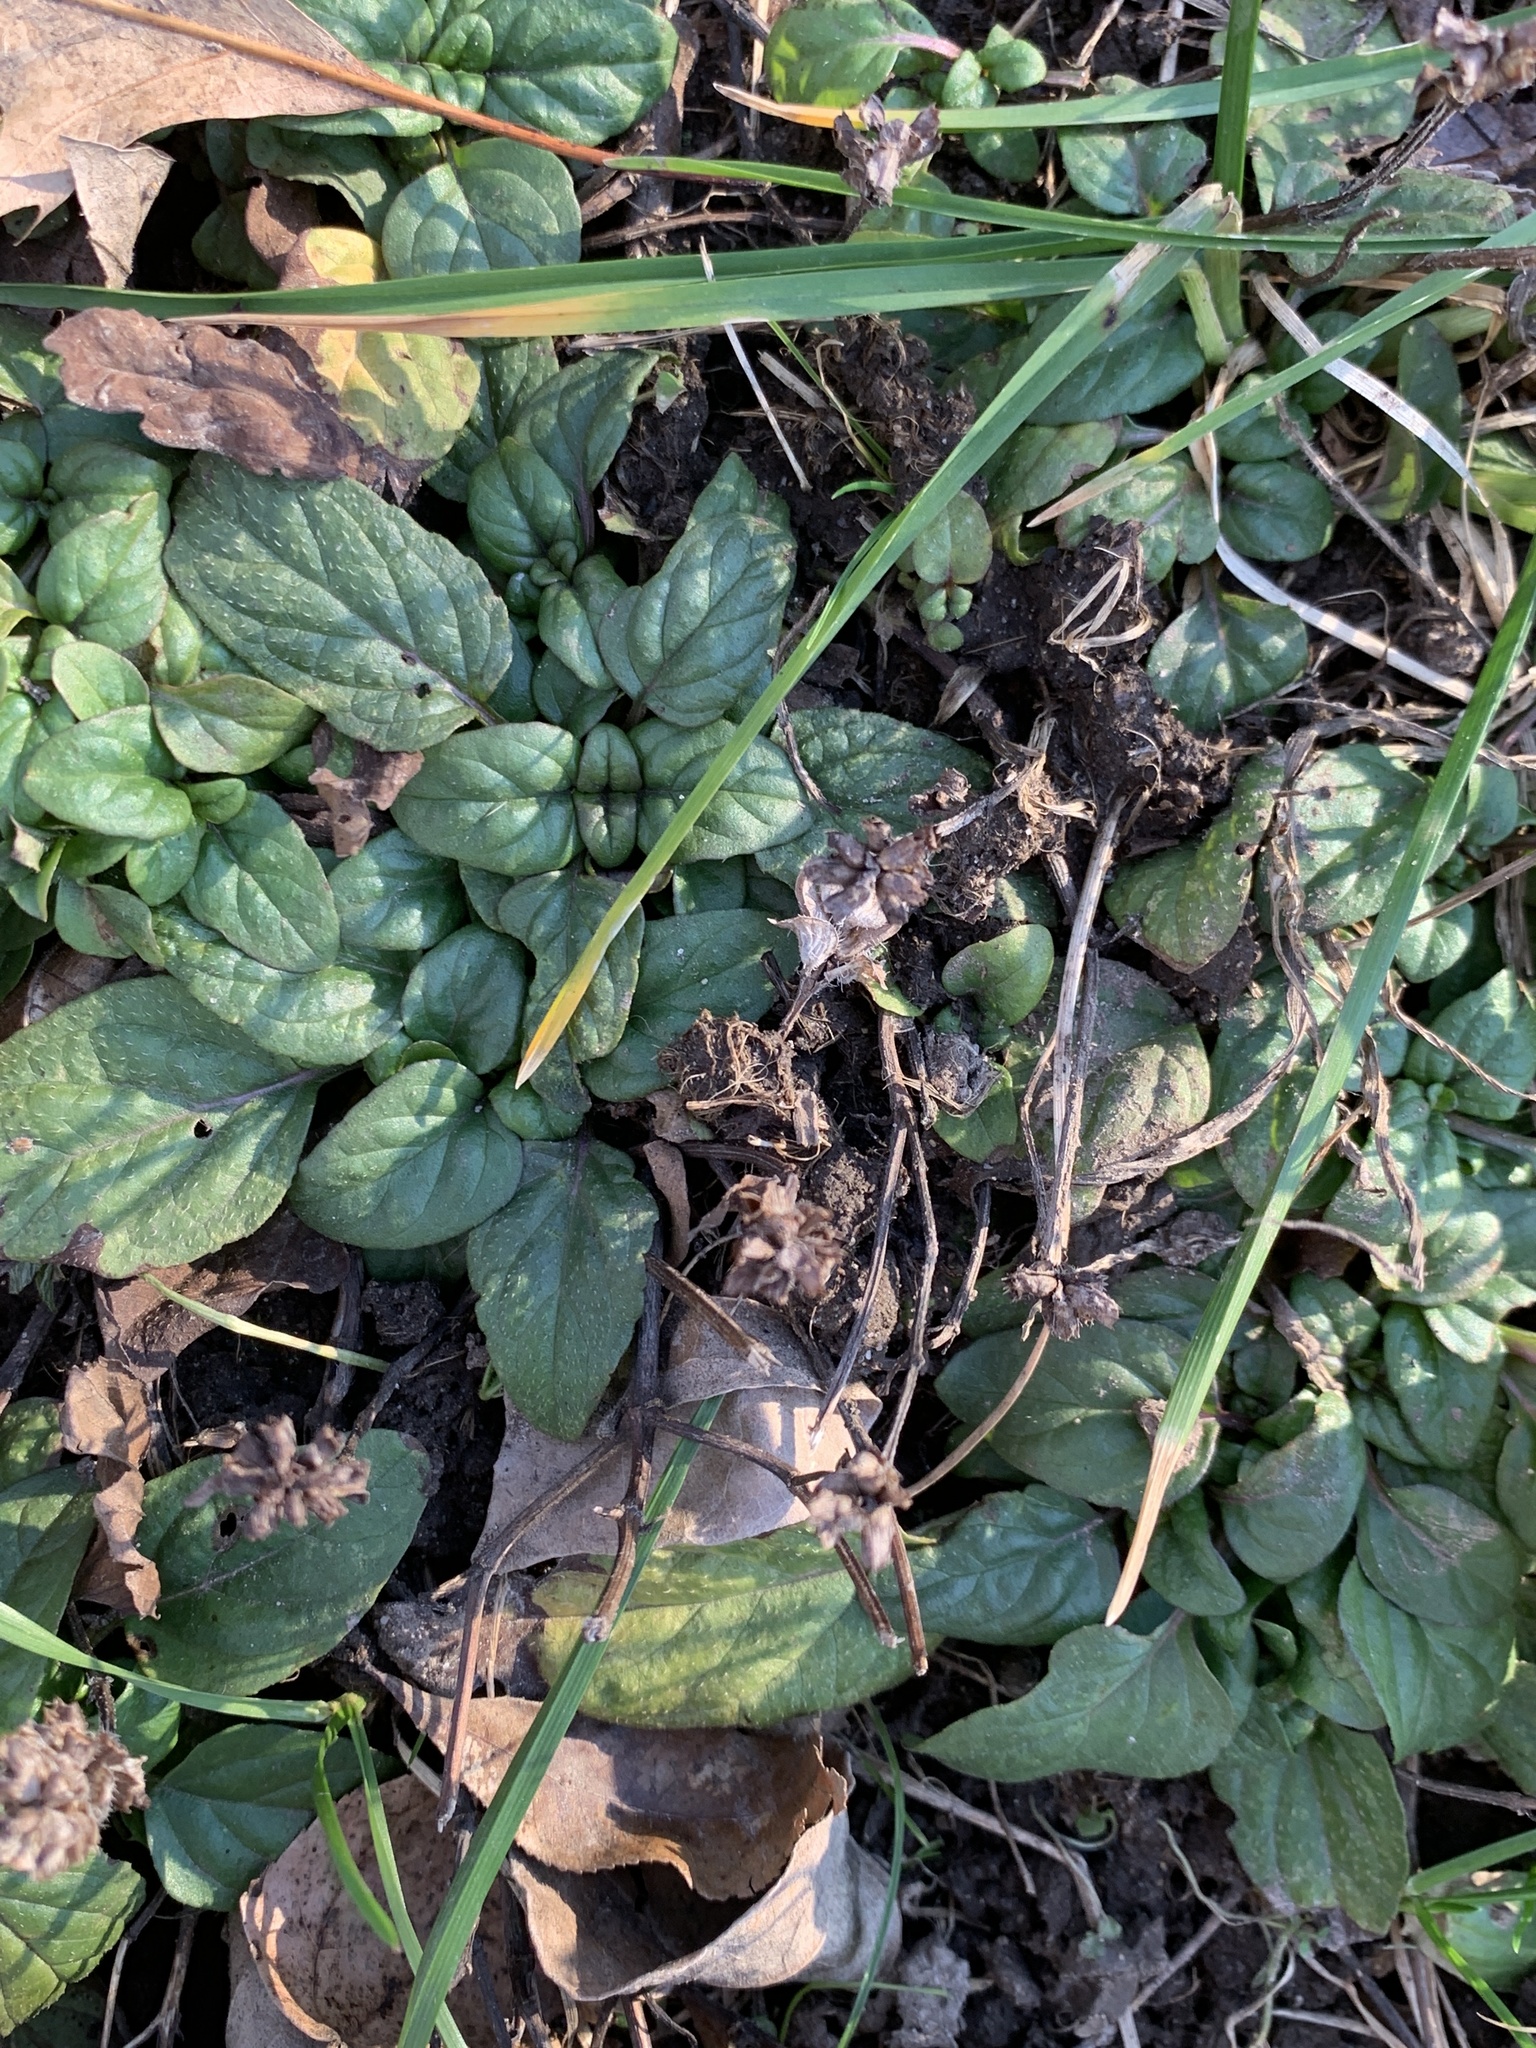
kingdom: Plantae
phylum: Tracheophyta
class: Magnoliopsida
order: Lamiales
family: Lamiaceae
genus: Prunella
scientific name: Prunella vulgaris
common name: Heal-all
